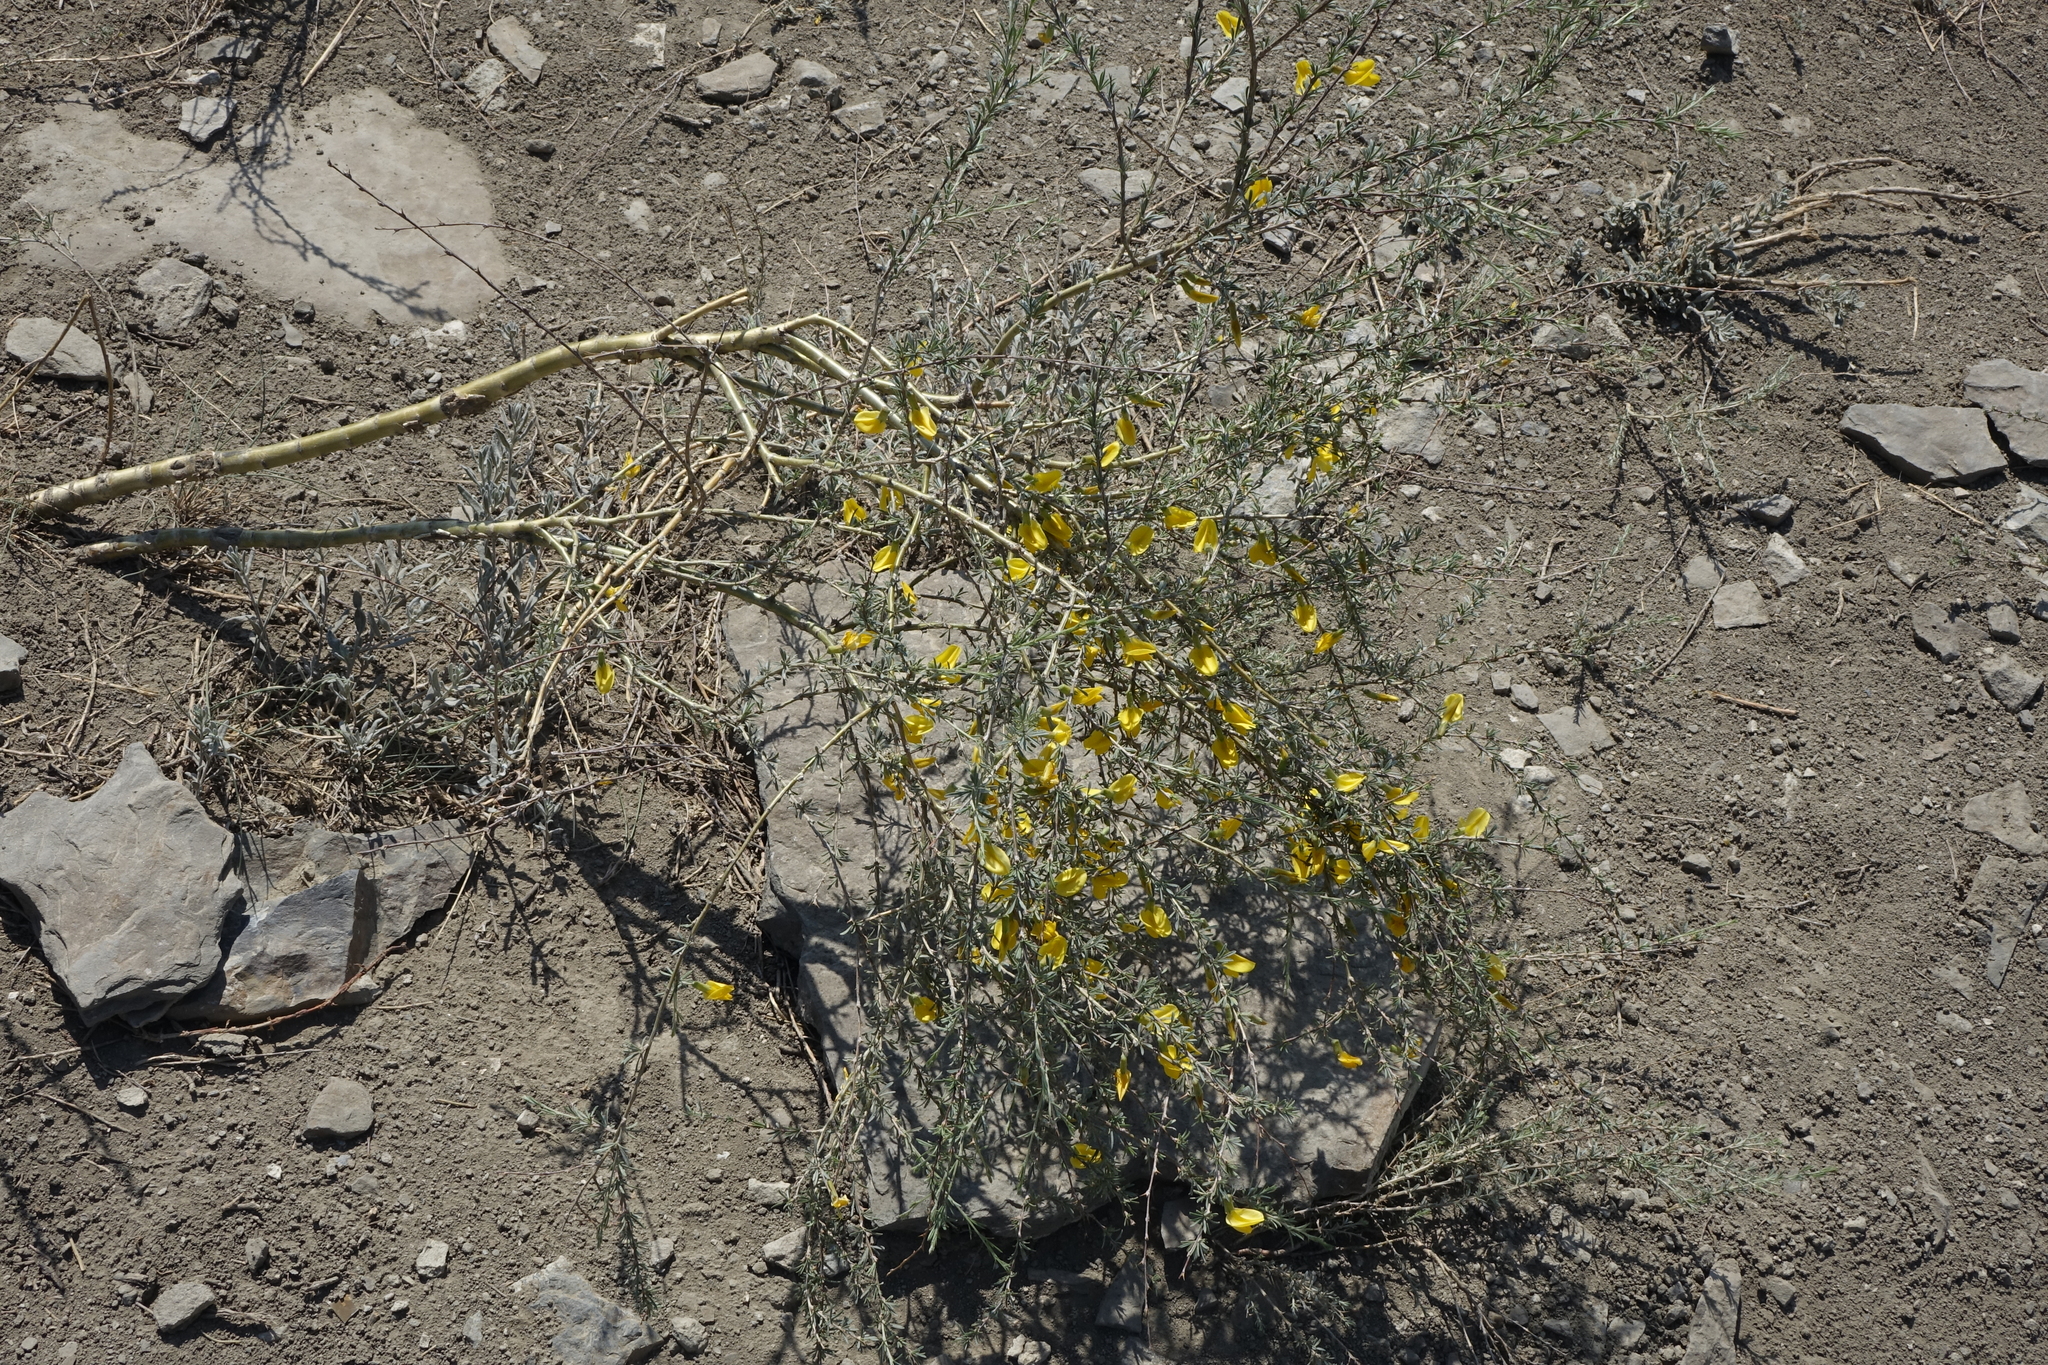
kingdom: Plantae
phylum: Tracheophyta
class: Magnoliopsida
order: Fabales
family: Fabaceae
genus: Caragana
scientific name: Caragana pygmaea
